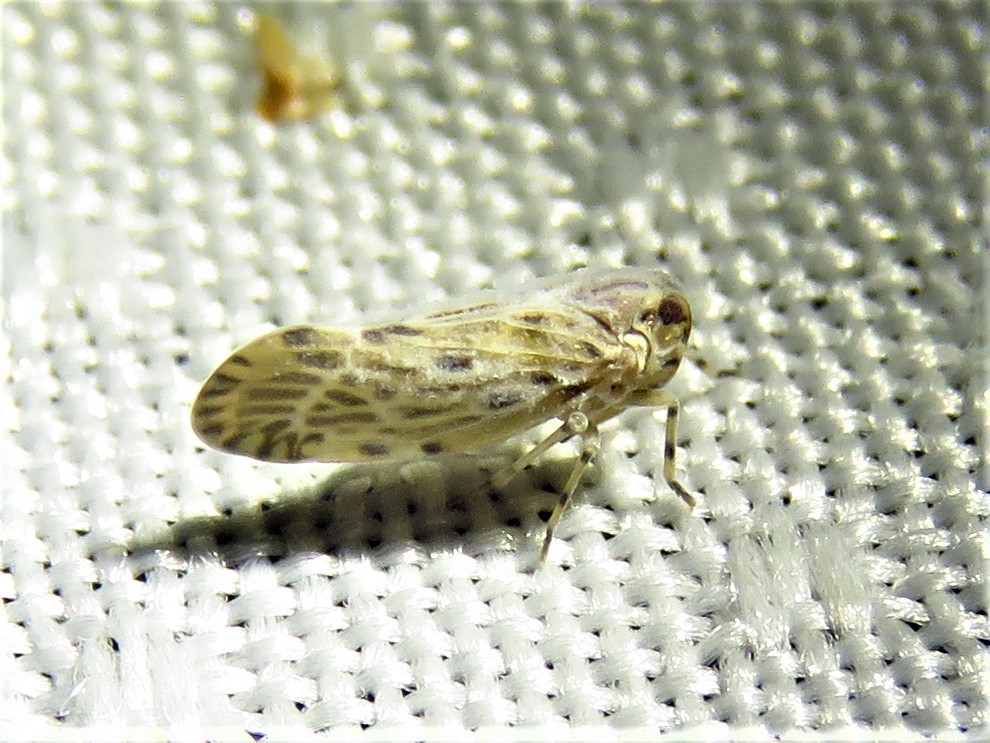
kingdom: Animalia
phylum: Arthropoda
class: Insecta
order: Hemiptera
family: Derbidae
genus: Cedusa
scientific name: Cedusa maculata
